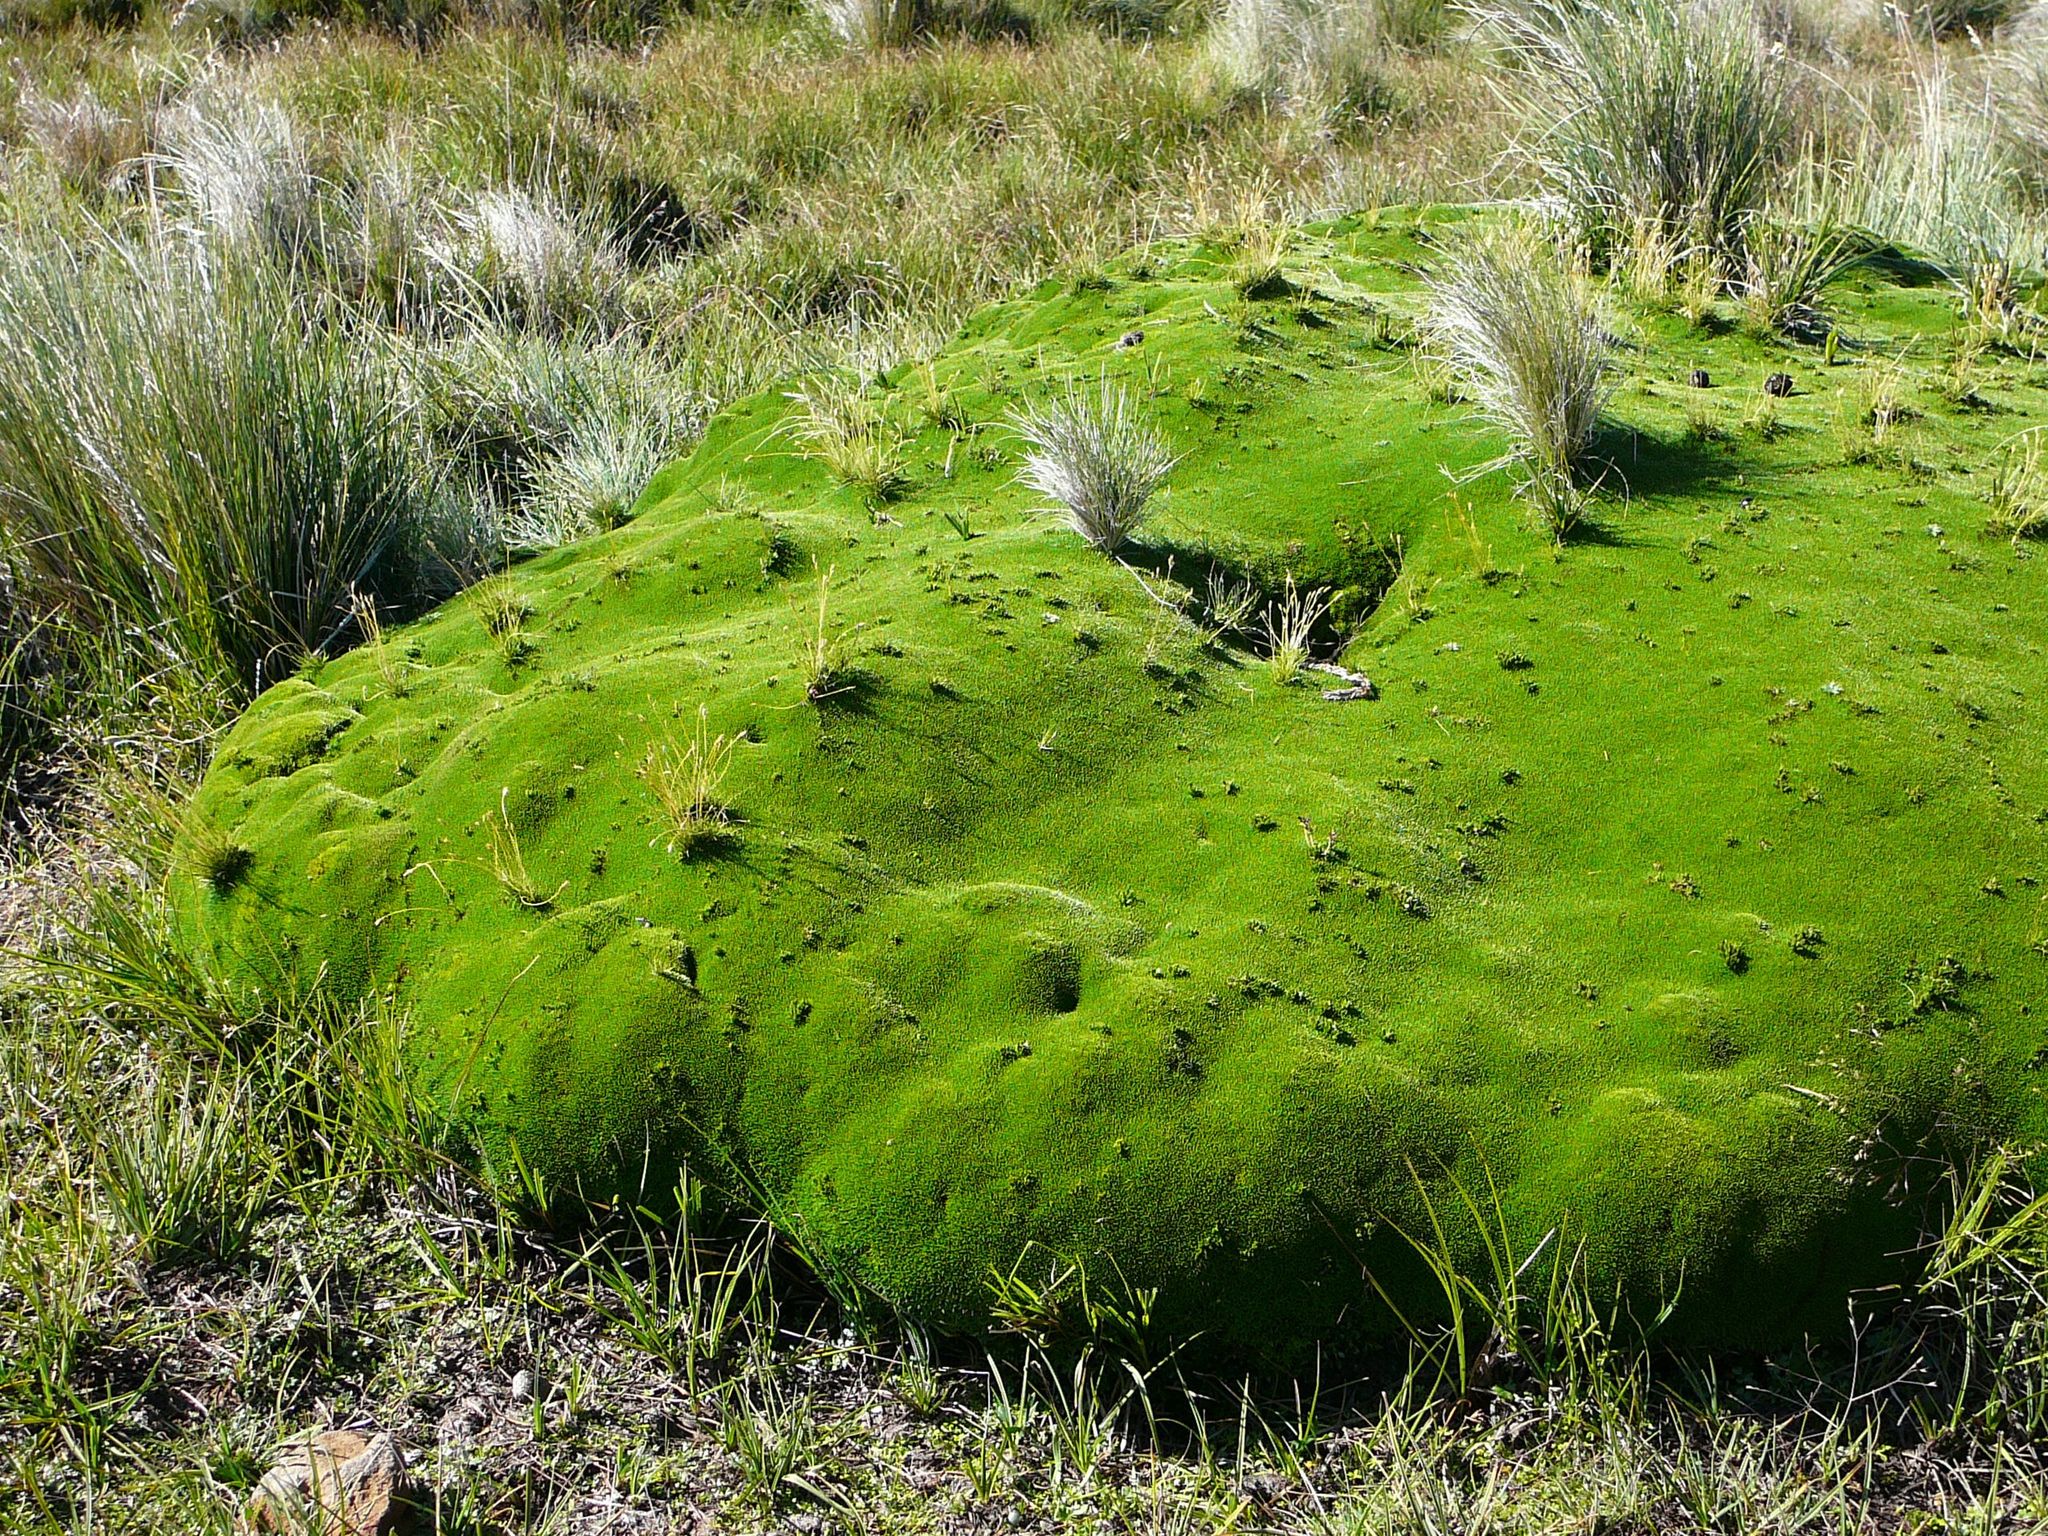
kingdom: Plantae
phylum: Tracheophyta
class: Magnoliopsida
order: Asterales
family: Asteraceae
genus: Abrotanella
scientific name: Abrotanella forsteroides
